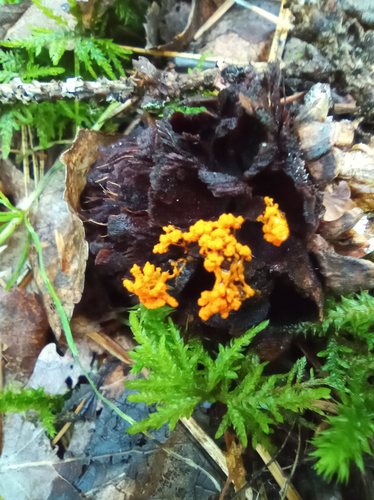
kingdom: Protozoa
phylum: Mycetozoa
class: Myxomycetes
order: Physarales
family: Physaraceae
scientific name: Physaraceae
